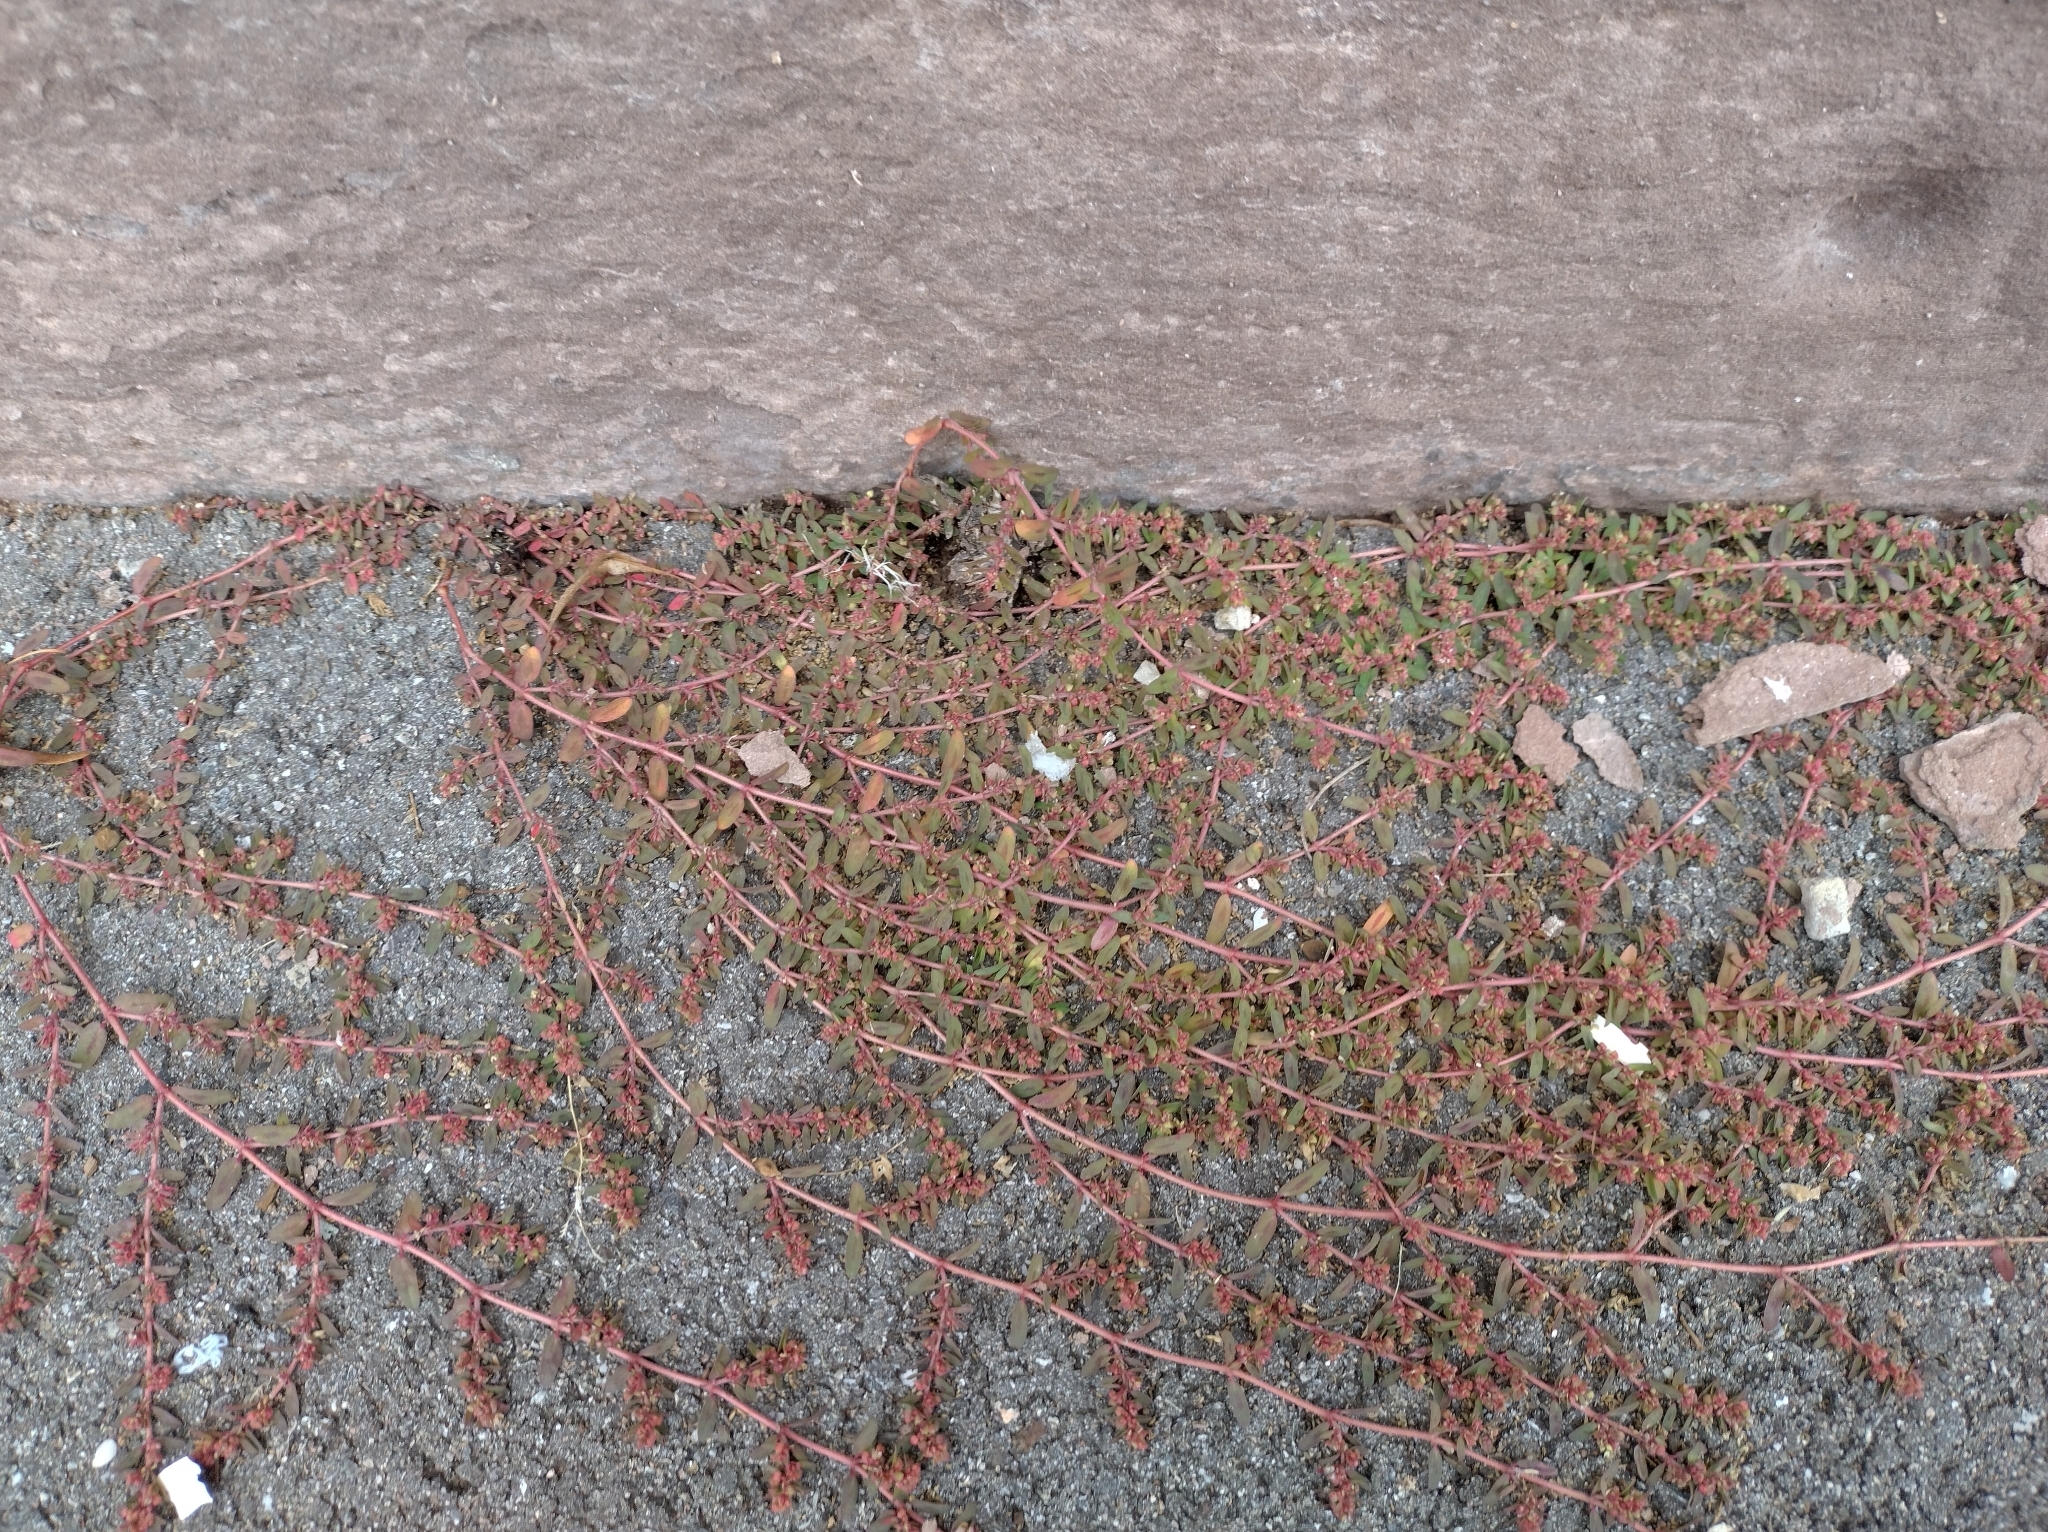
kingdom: Plantae
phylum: Tracheophyta
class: Magnoliopsida
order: Malpighiales
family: Euphorbiaceae
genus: Euphorbia
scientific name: Euphorbia maculata
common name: Spotted spurge
